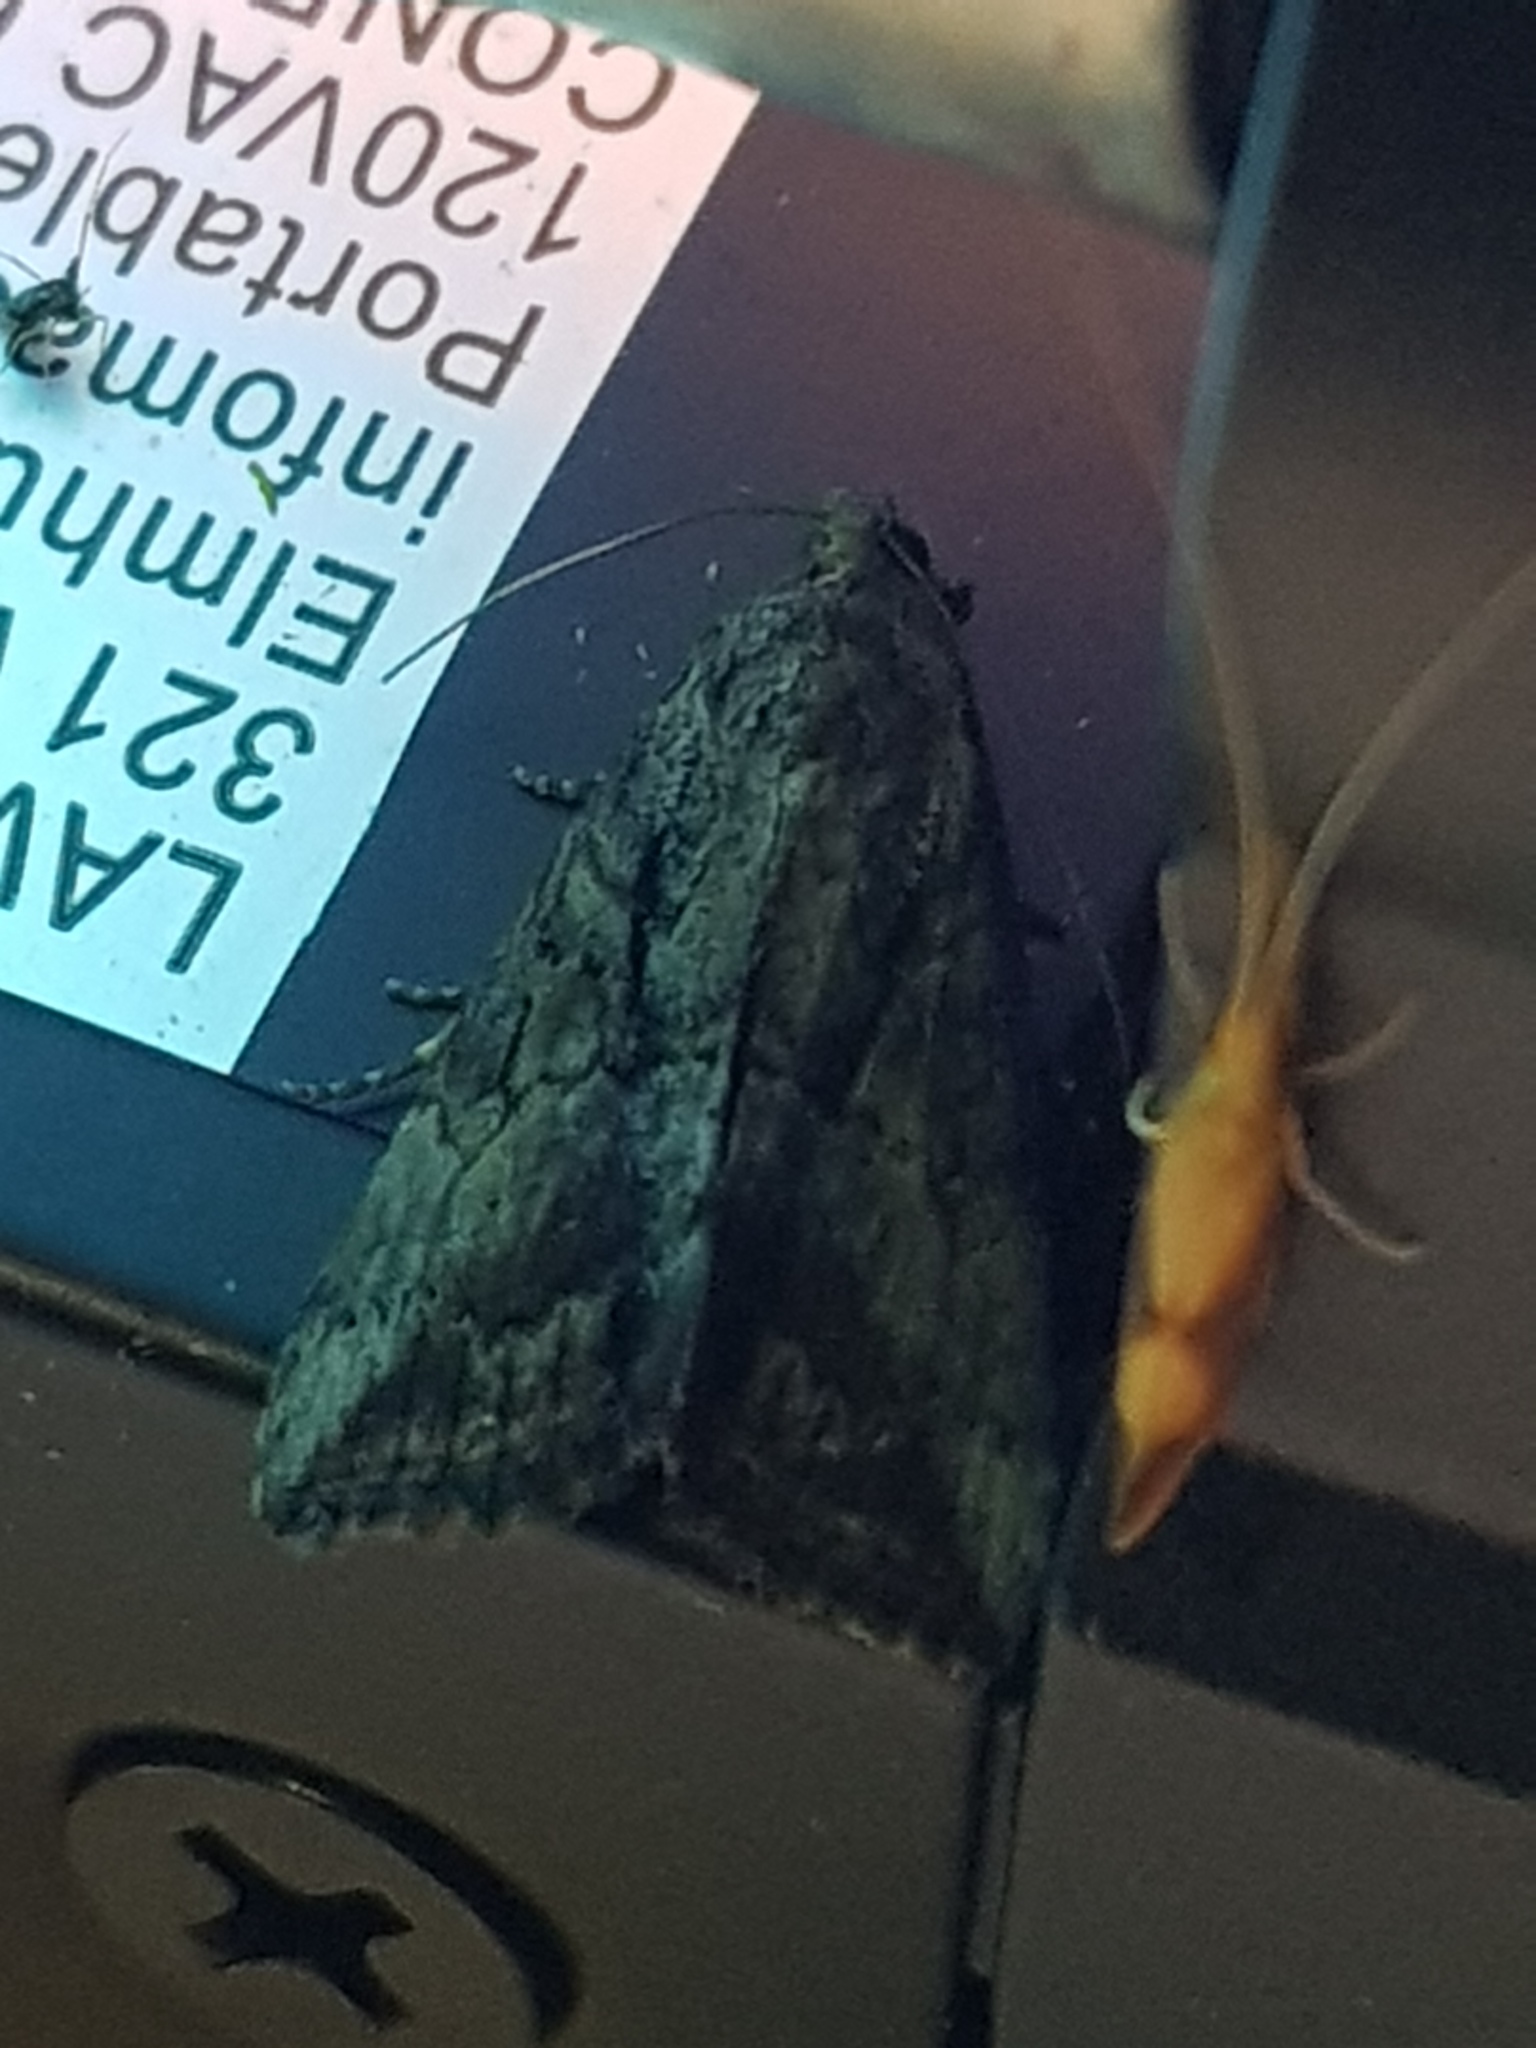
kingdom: Animalia
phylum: Arthropoda
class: Insecta
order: Lepidoptera
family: Erebidae
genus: Hypena
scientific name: Hypena scabra
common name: Green cloverworm
